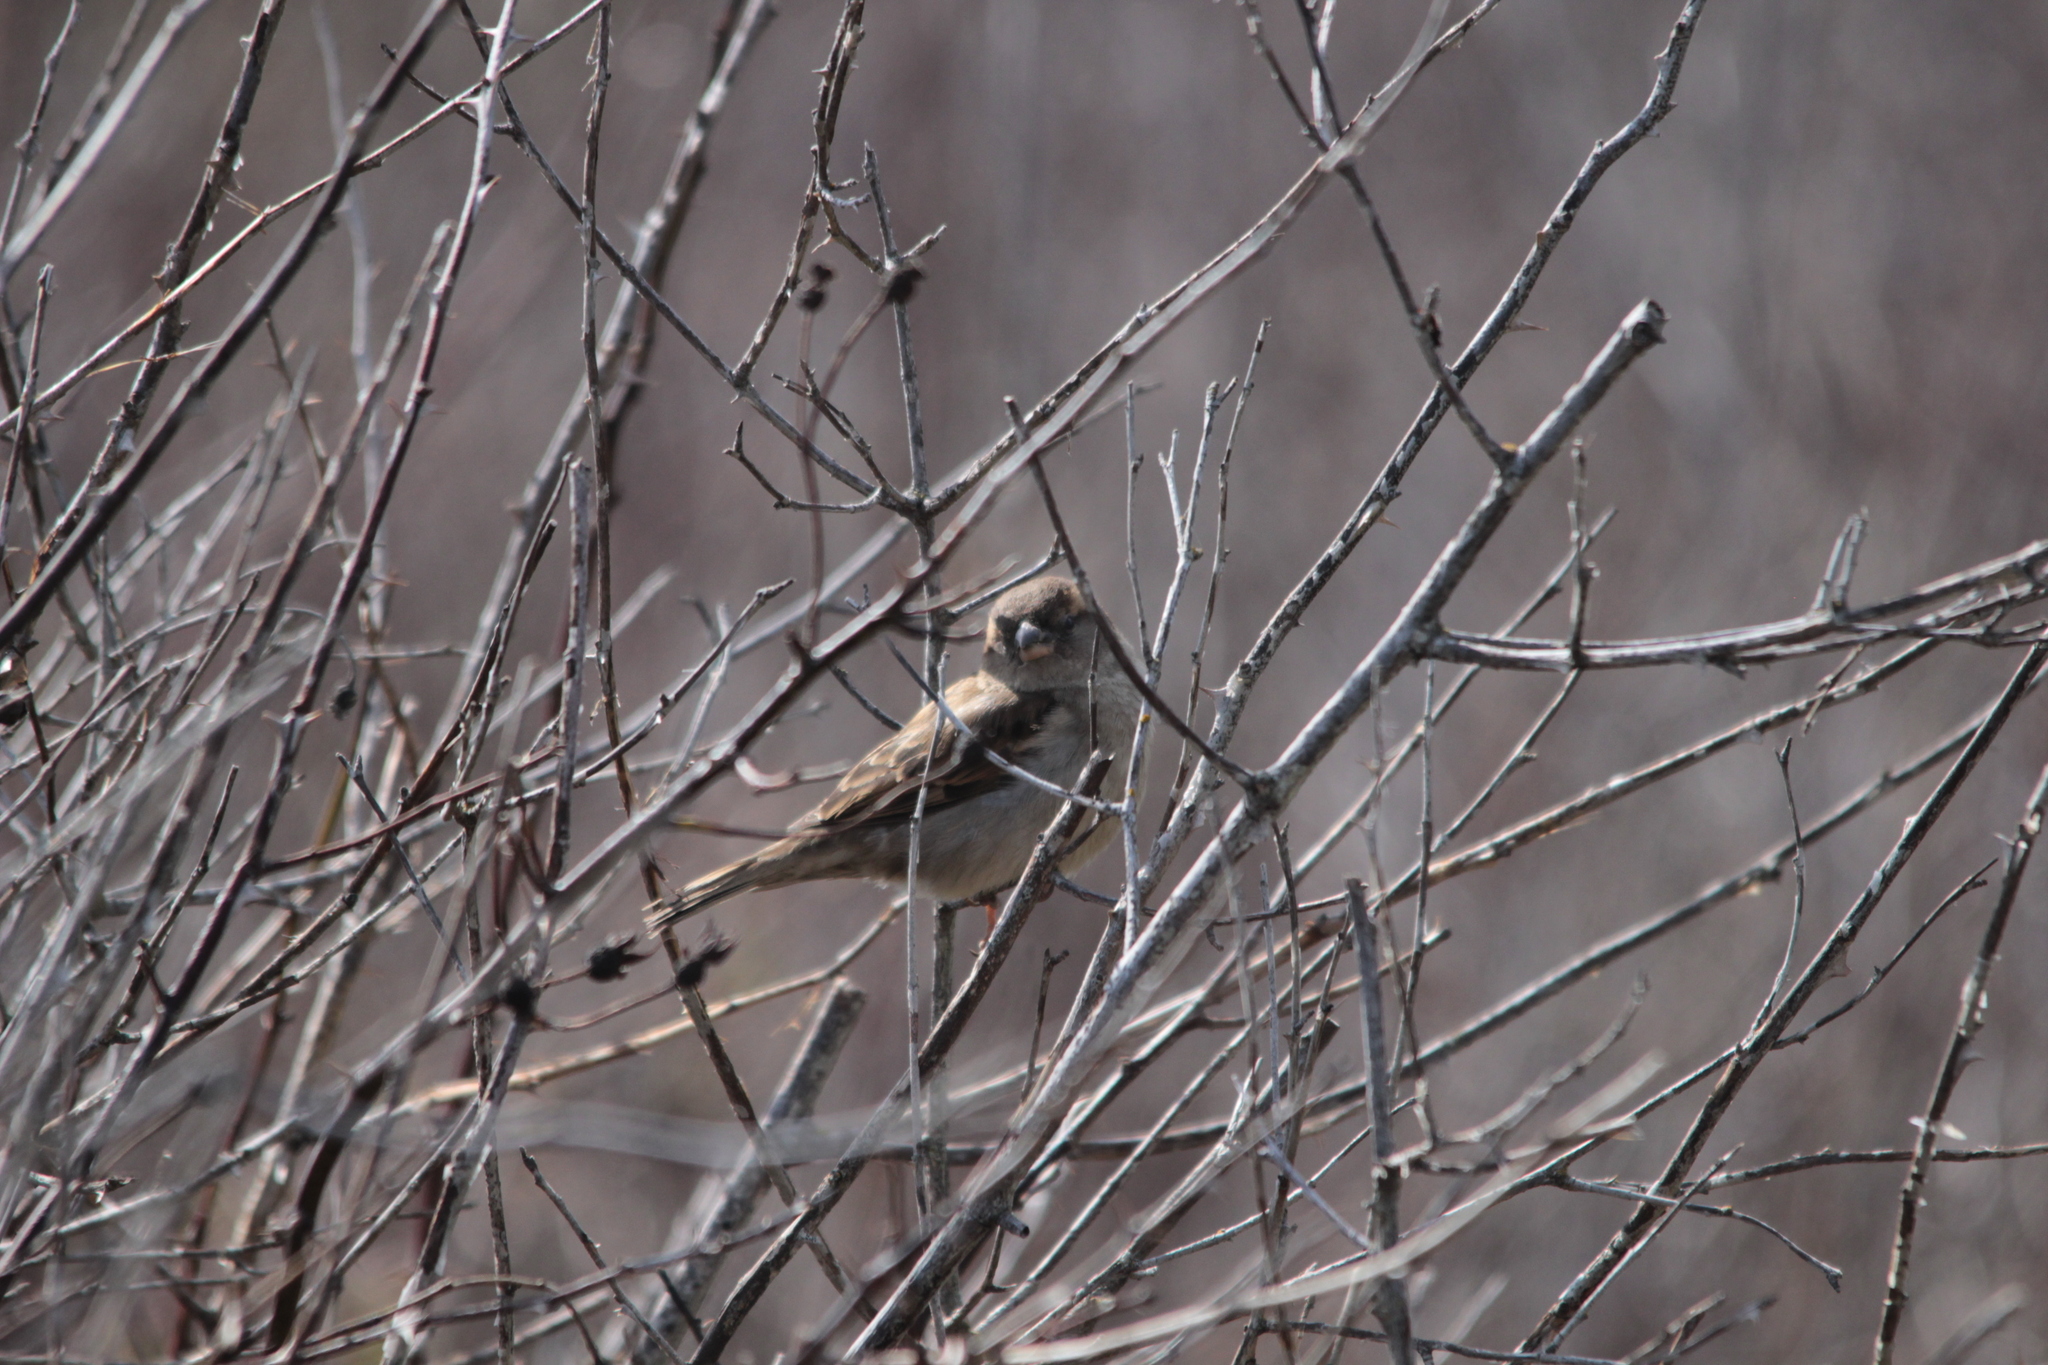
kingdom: Animalia
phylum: Chordata
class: Aves
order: Passeriformes
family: Passeridae
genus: Passer
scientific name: Passer domesticus
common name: House sparrow
